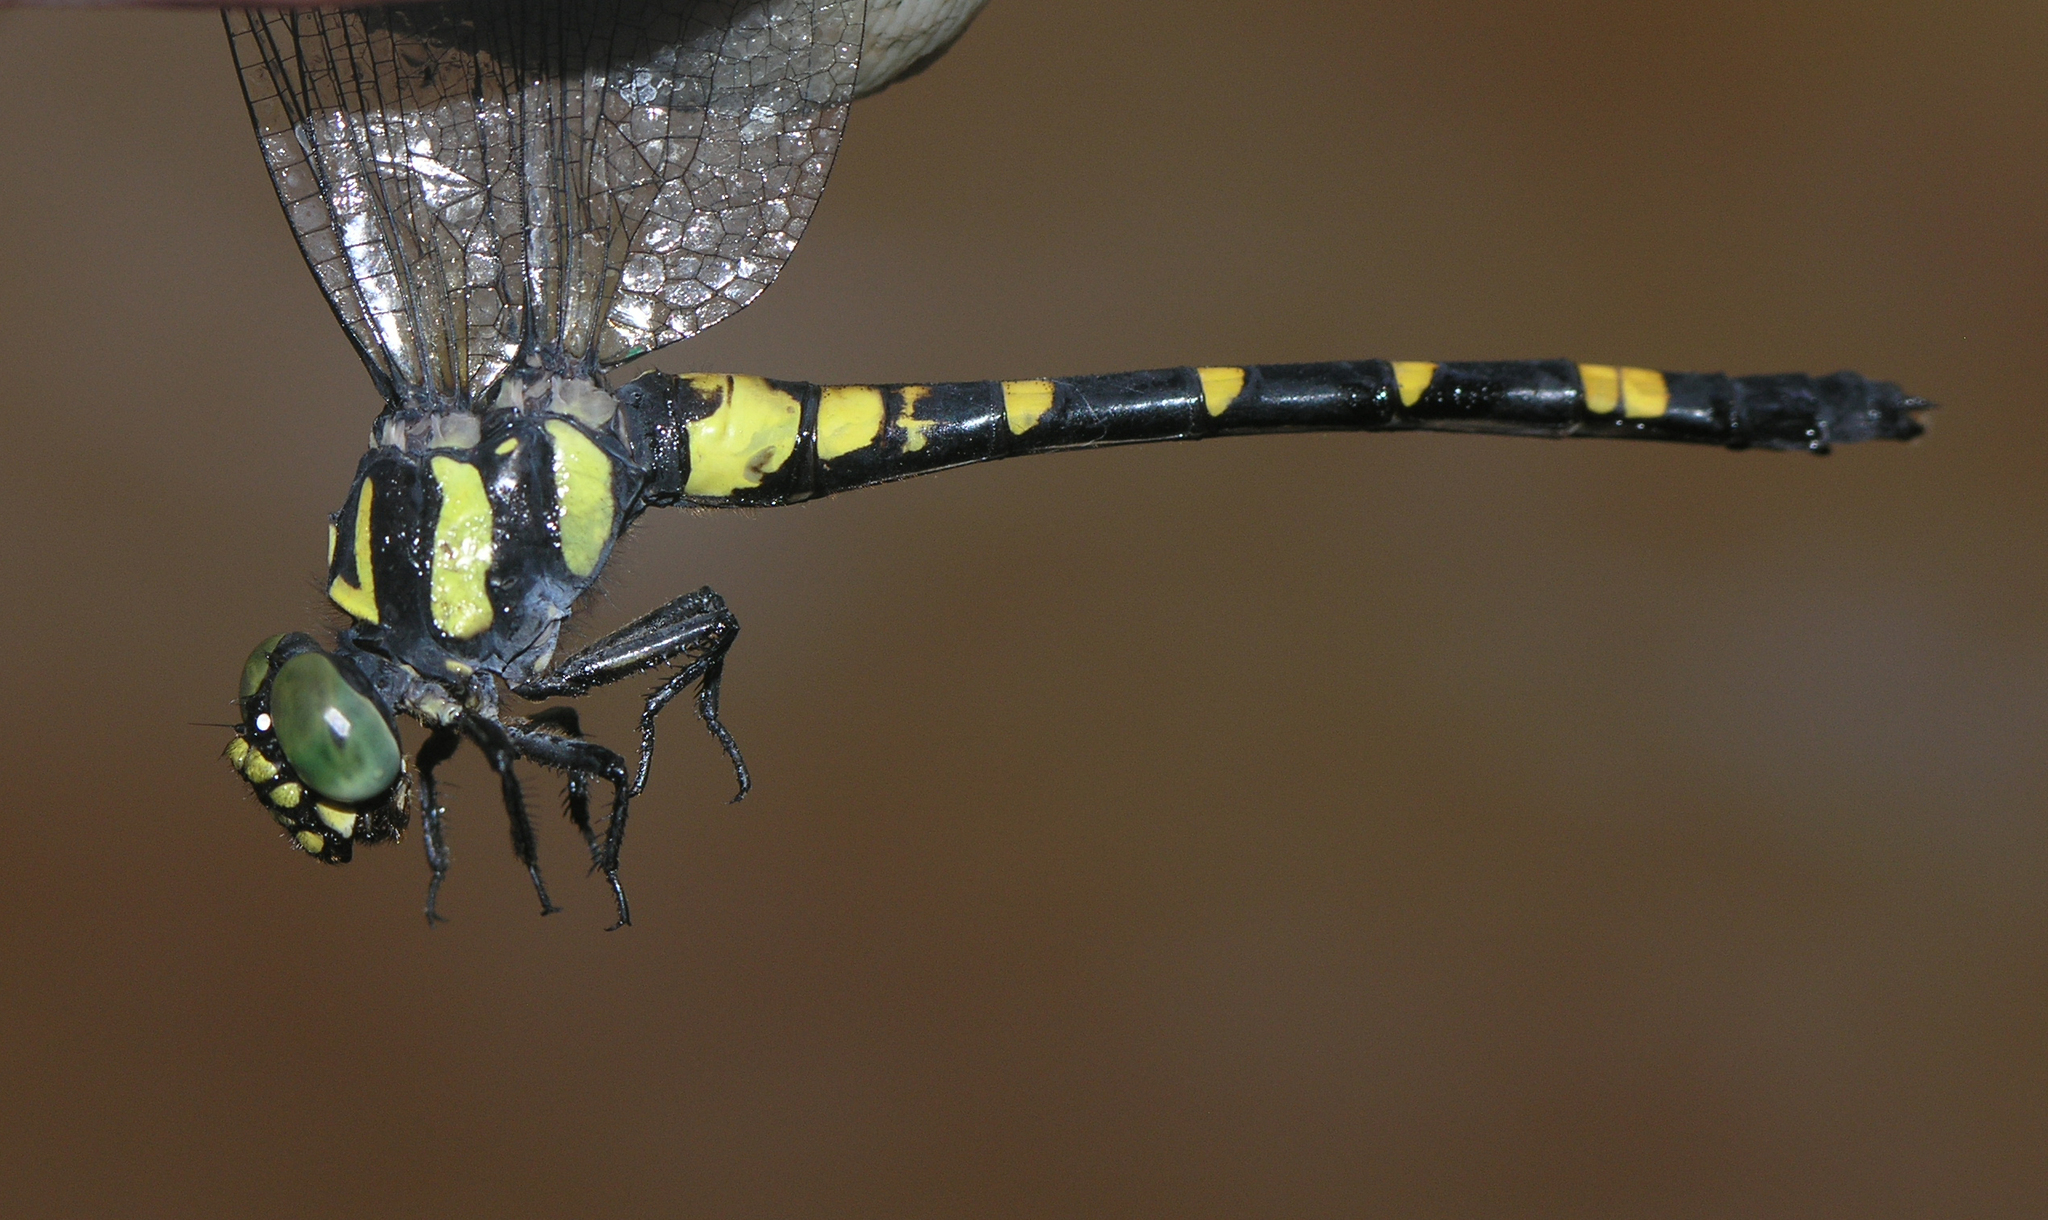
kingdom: Animalia
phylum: Arthropoda
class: Insecta
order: Odonata
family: Gomphidae
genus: Lamelligomphus
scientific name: Lamelligomphus castor
